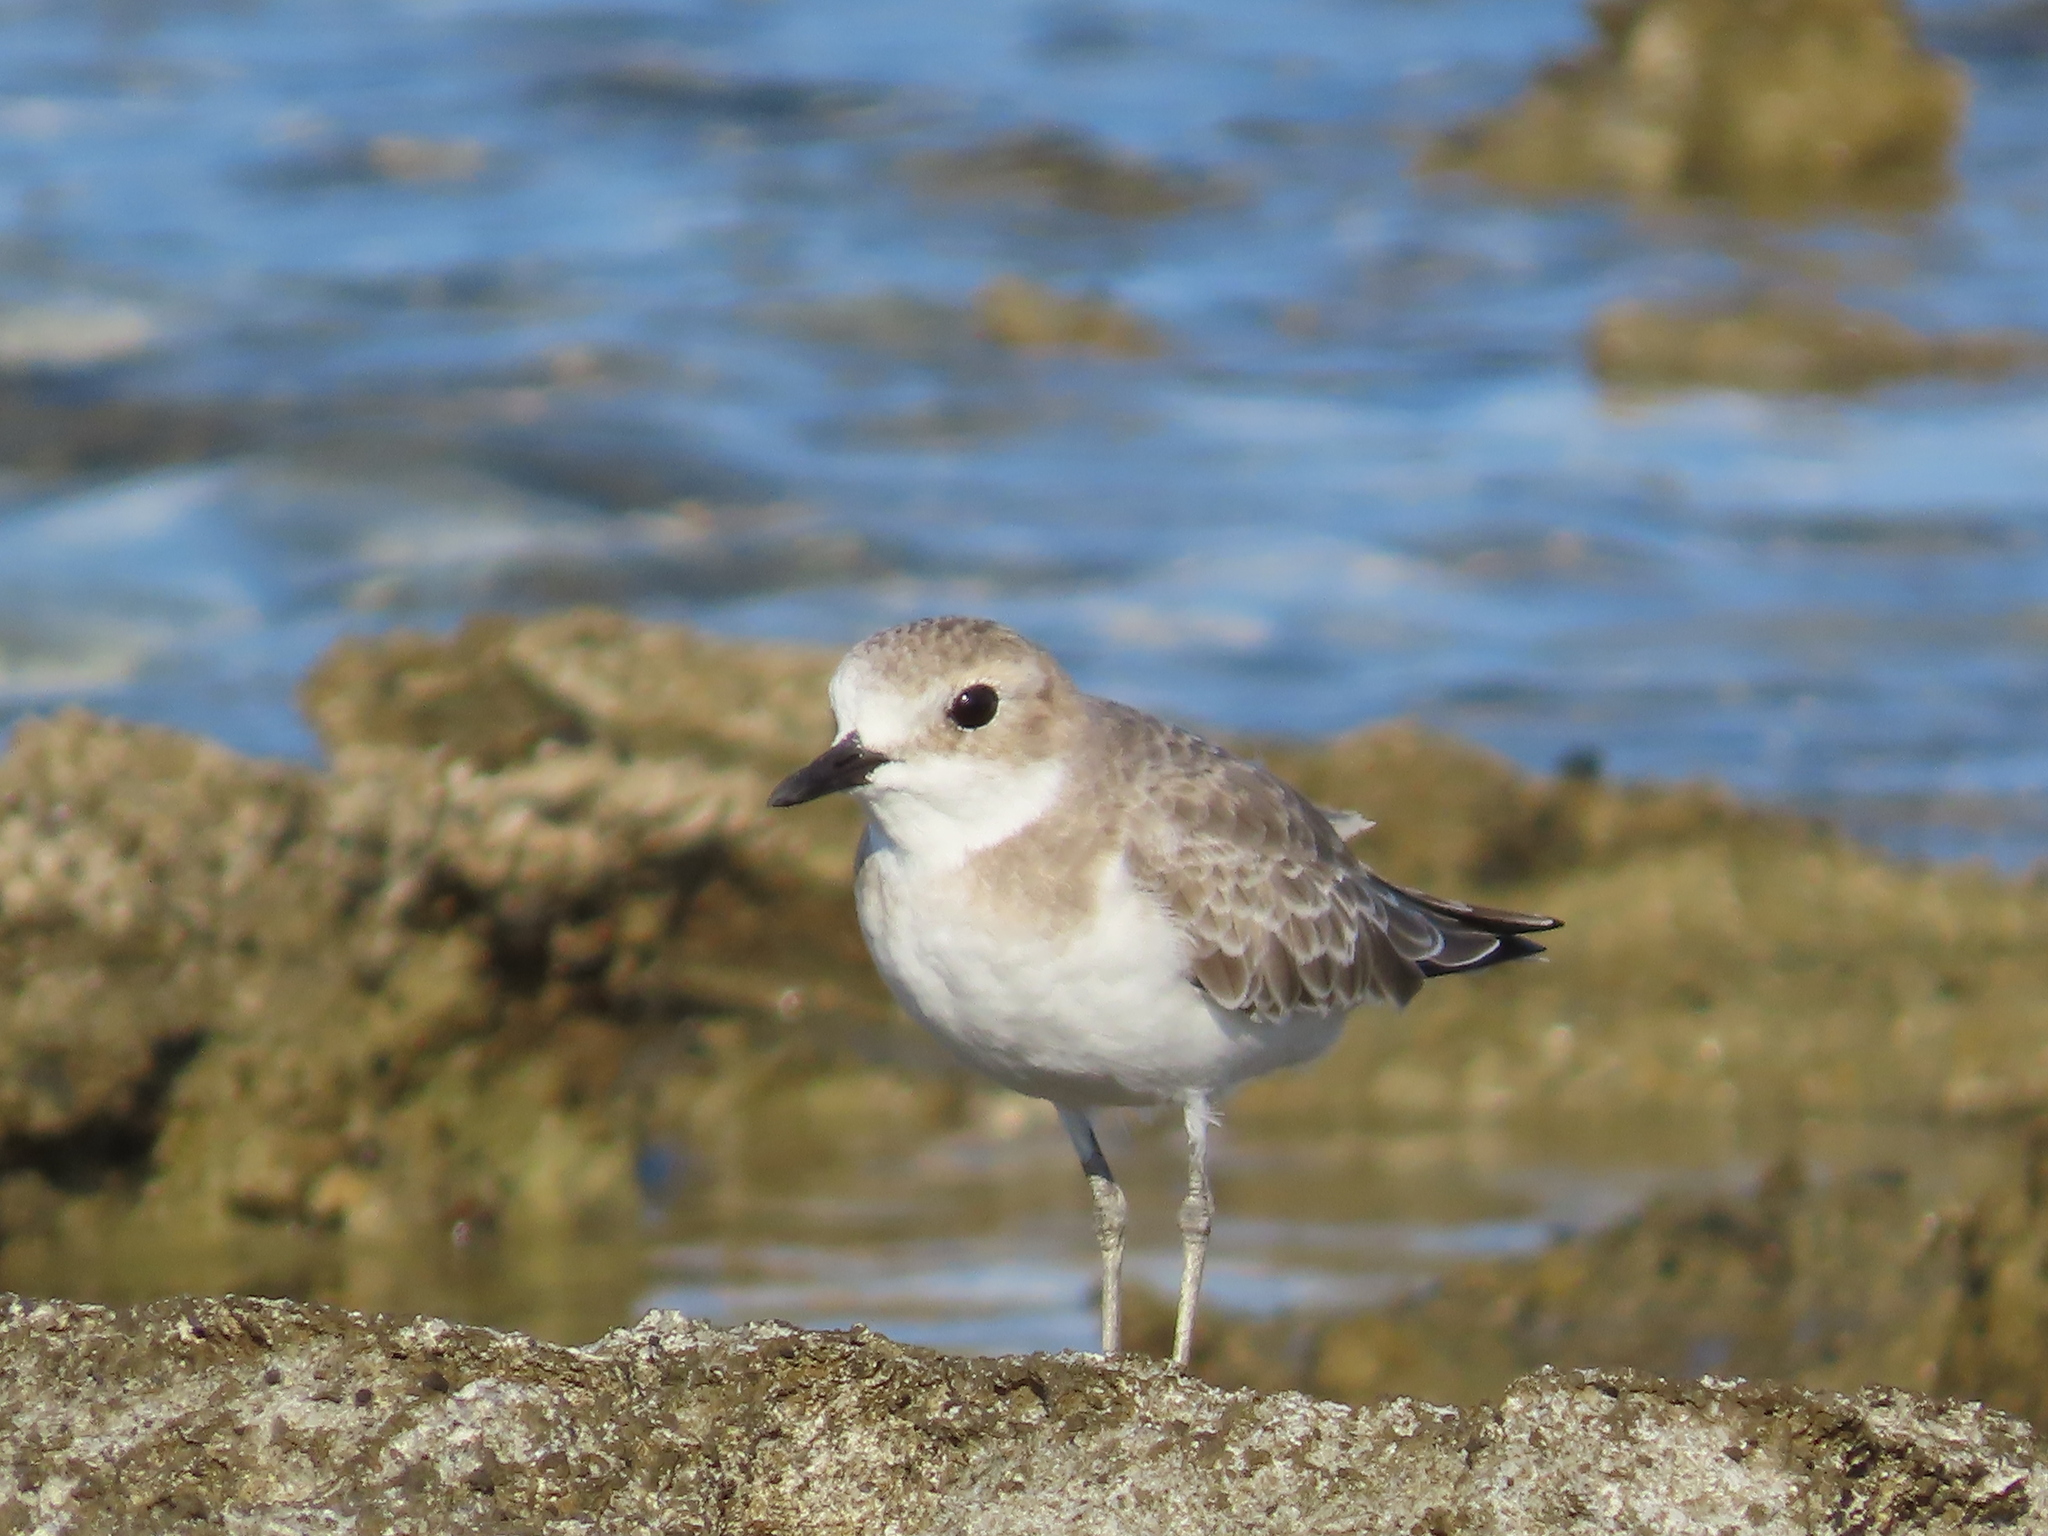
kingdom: Animalia
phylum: Chordata
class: Aves
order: Charadriiformes
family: Charadriidae
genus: Charadrius
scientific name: Charadrius leschenaultii
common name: Greater sand plover
